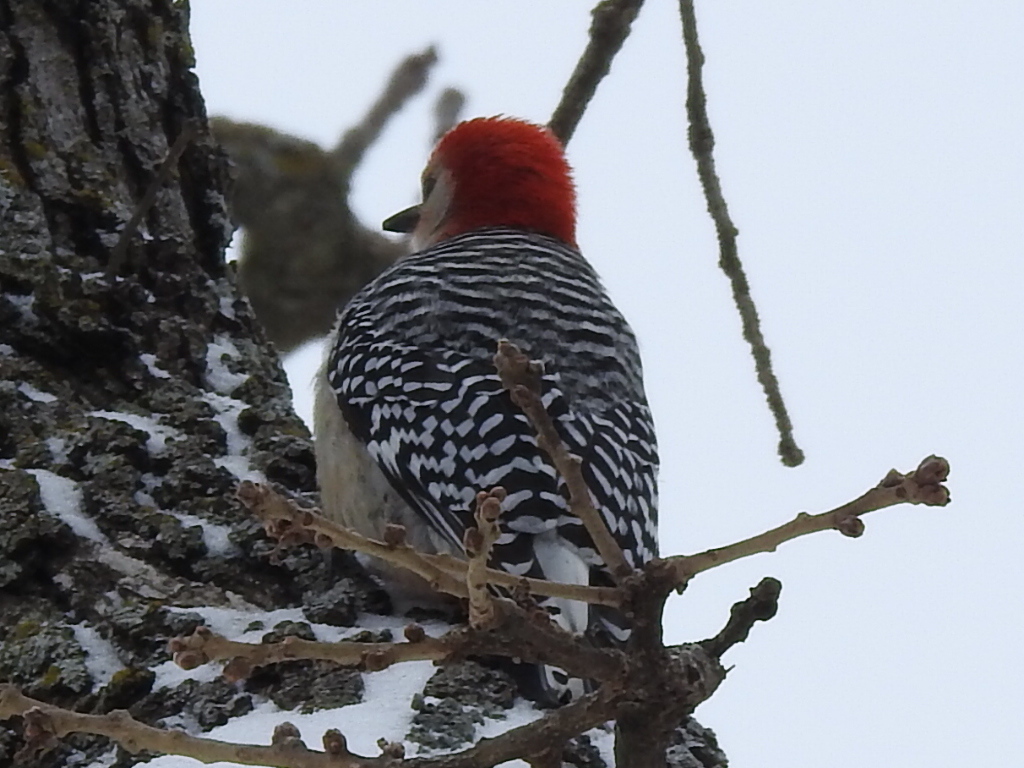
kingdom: Animalia
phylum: Chordata
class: Aves
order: Piciformes
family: Picidae
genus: Melanerpes
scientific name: Melanerpes carolinus
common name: Red-bellied woodpecker
